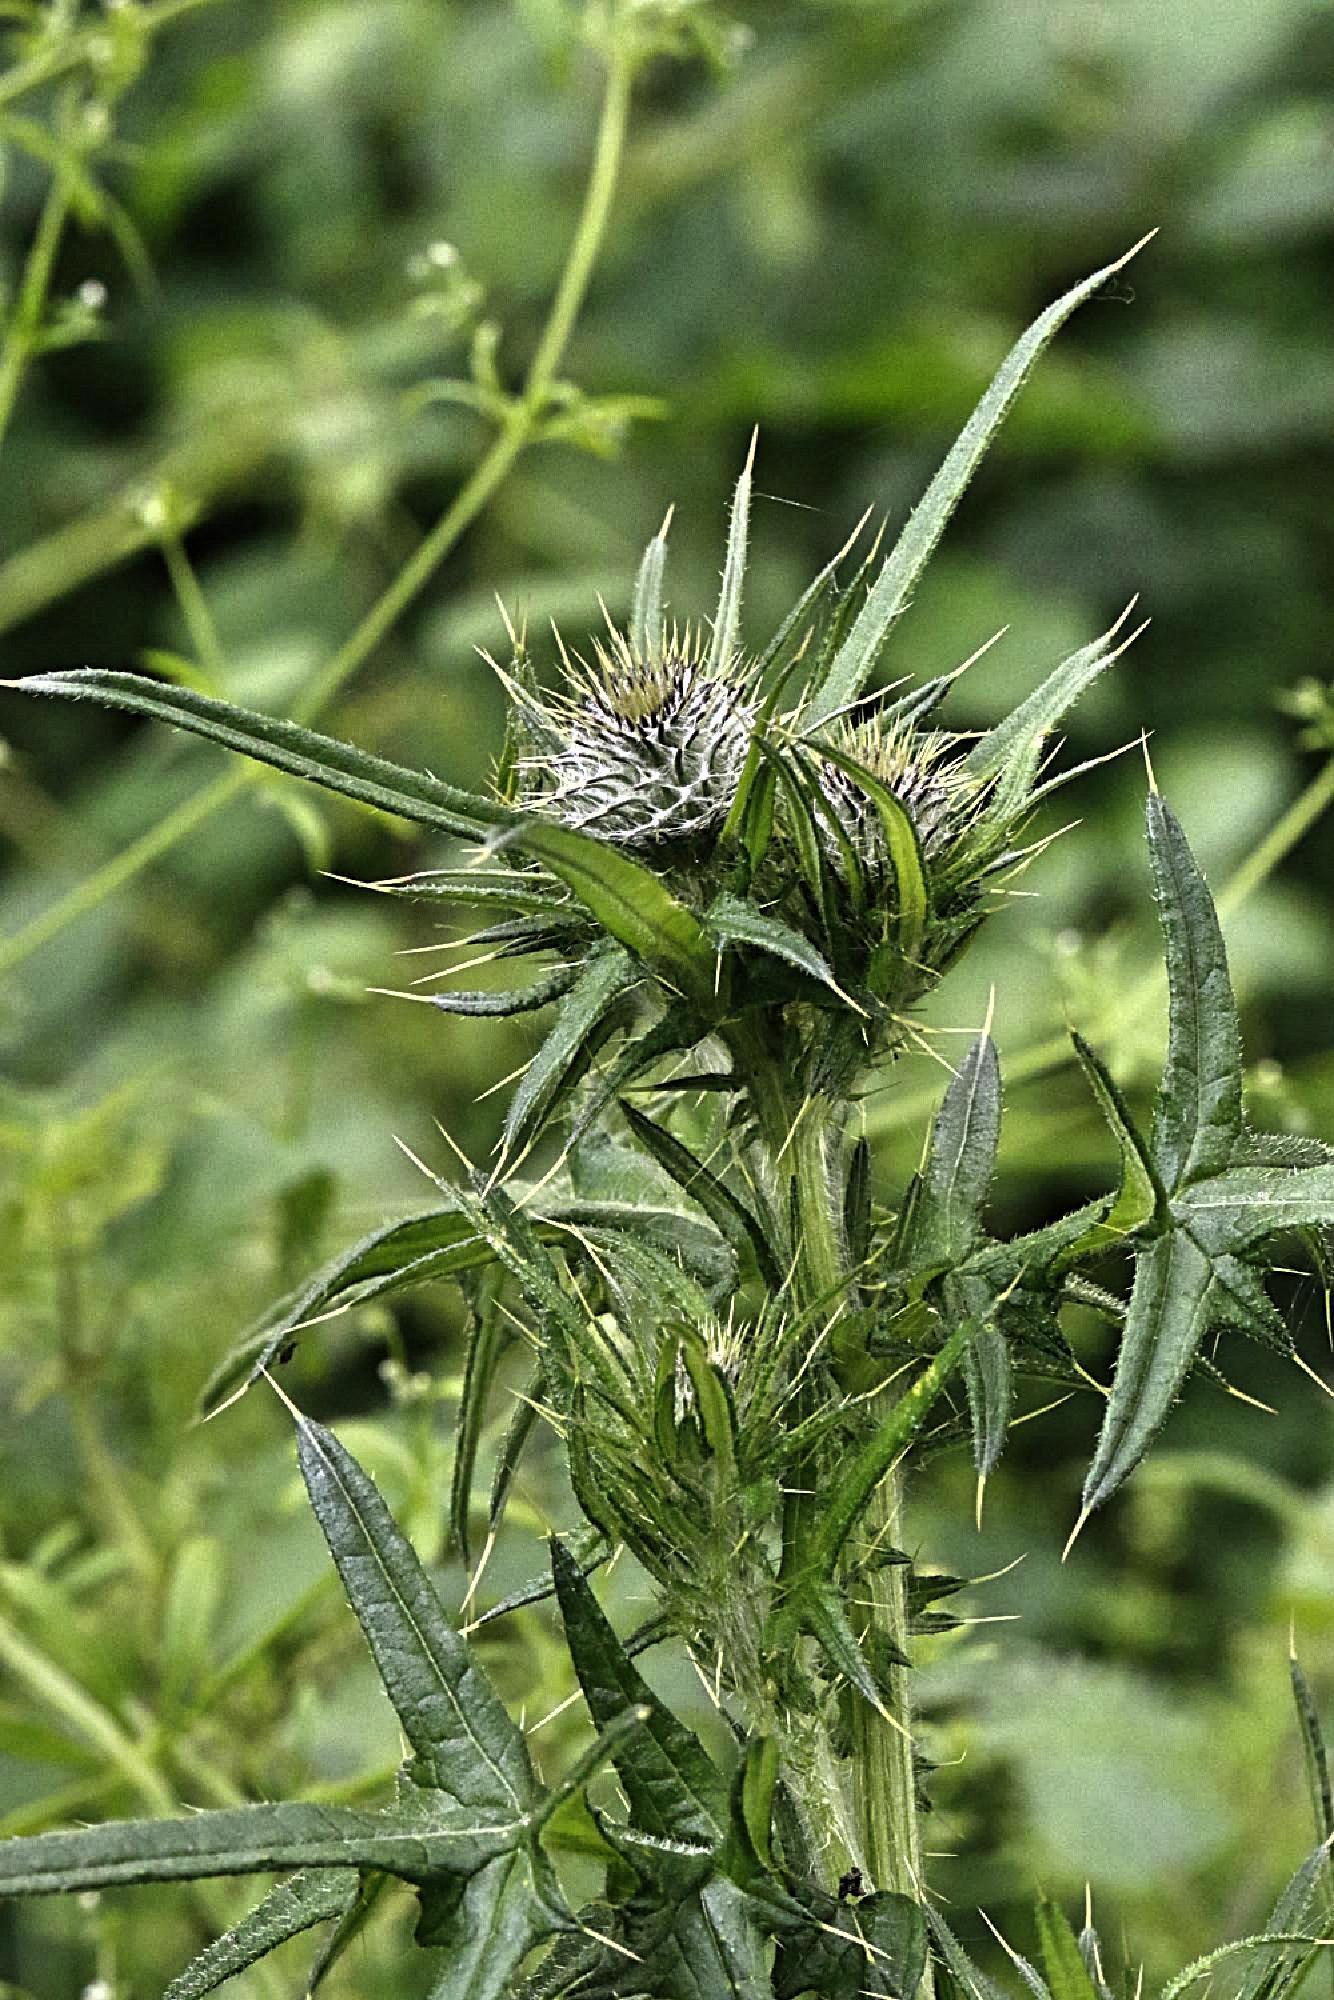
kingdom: Plantae
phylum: Tracheophyta
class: Magnoliopsida
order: Asterales
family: Asteraceae
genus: Cirsium
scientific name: Cirsium vulgare
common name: Bull thistle
